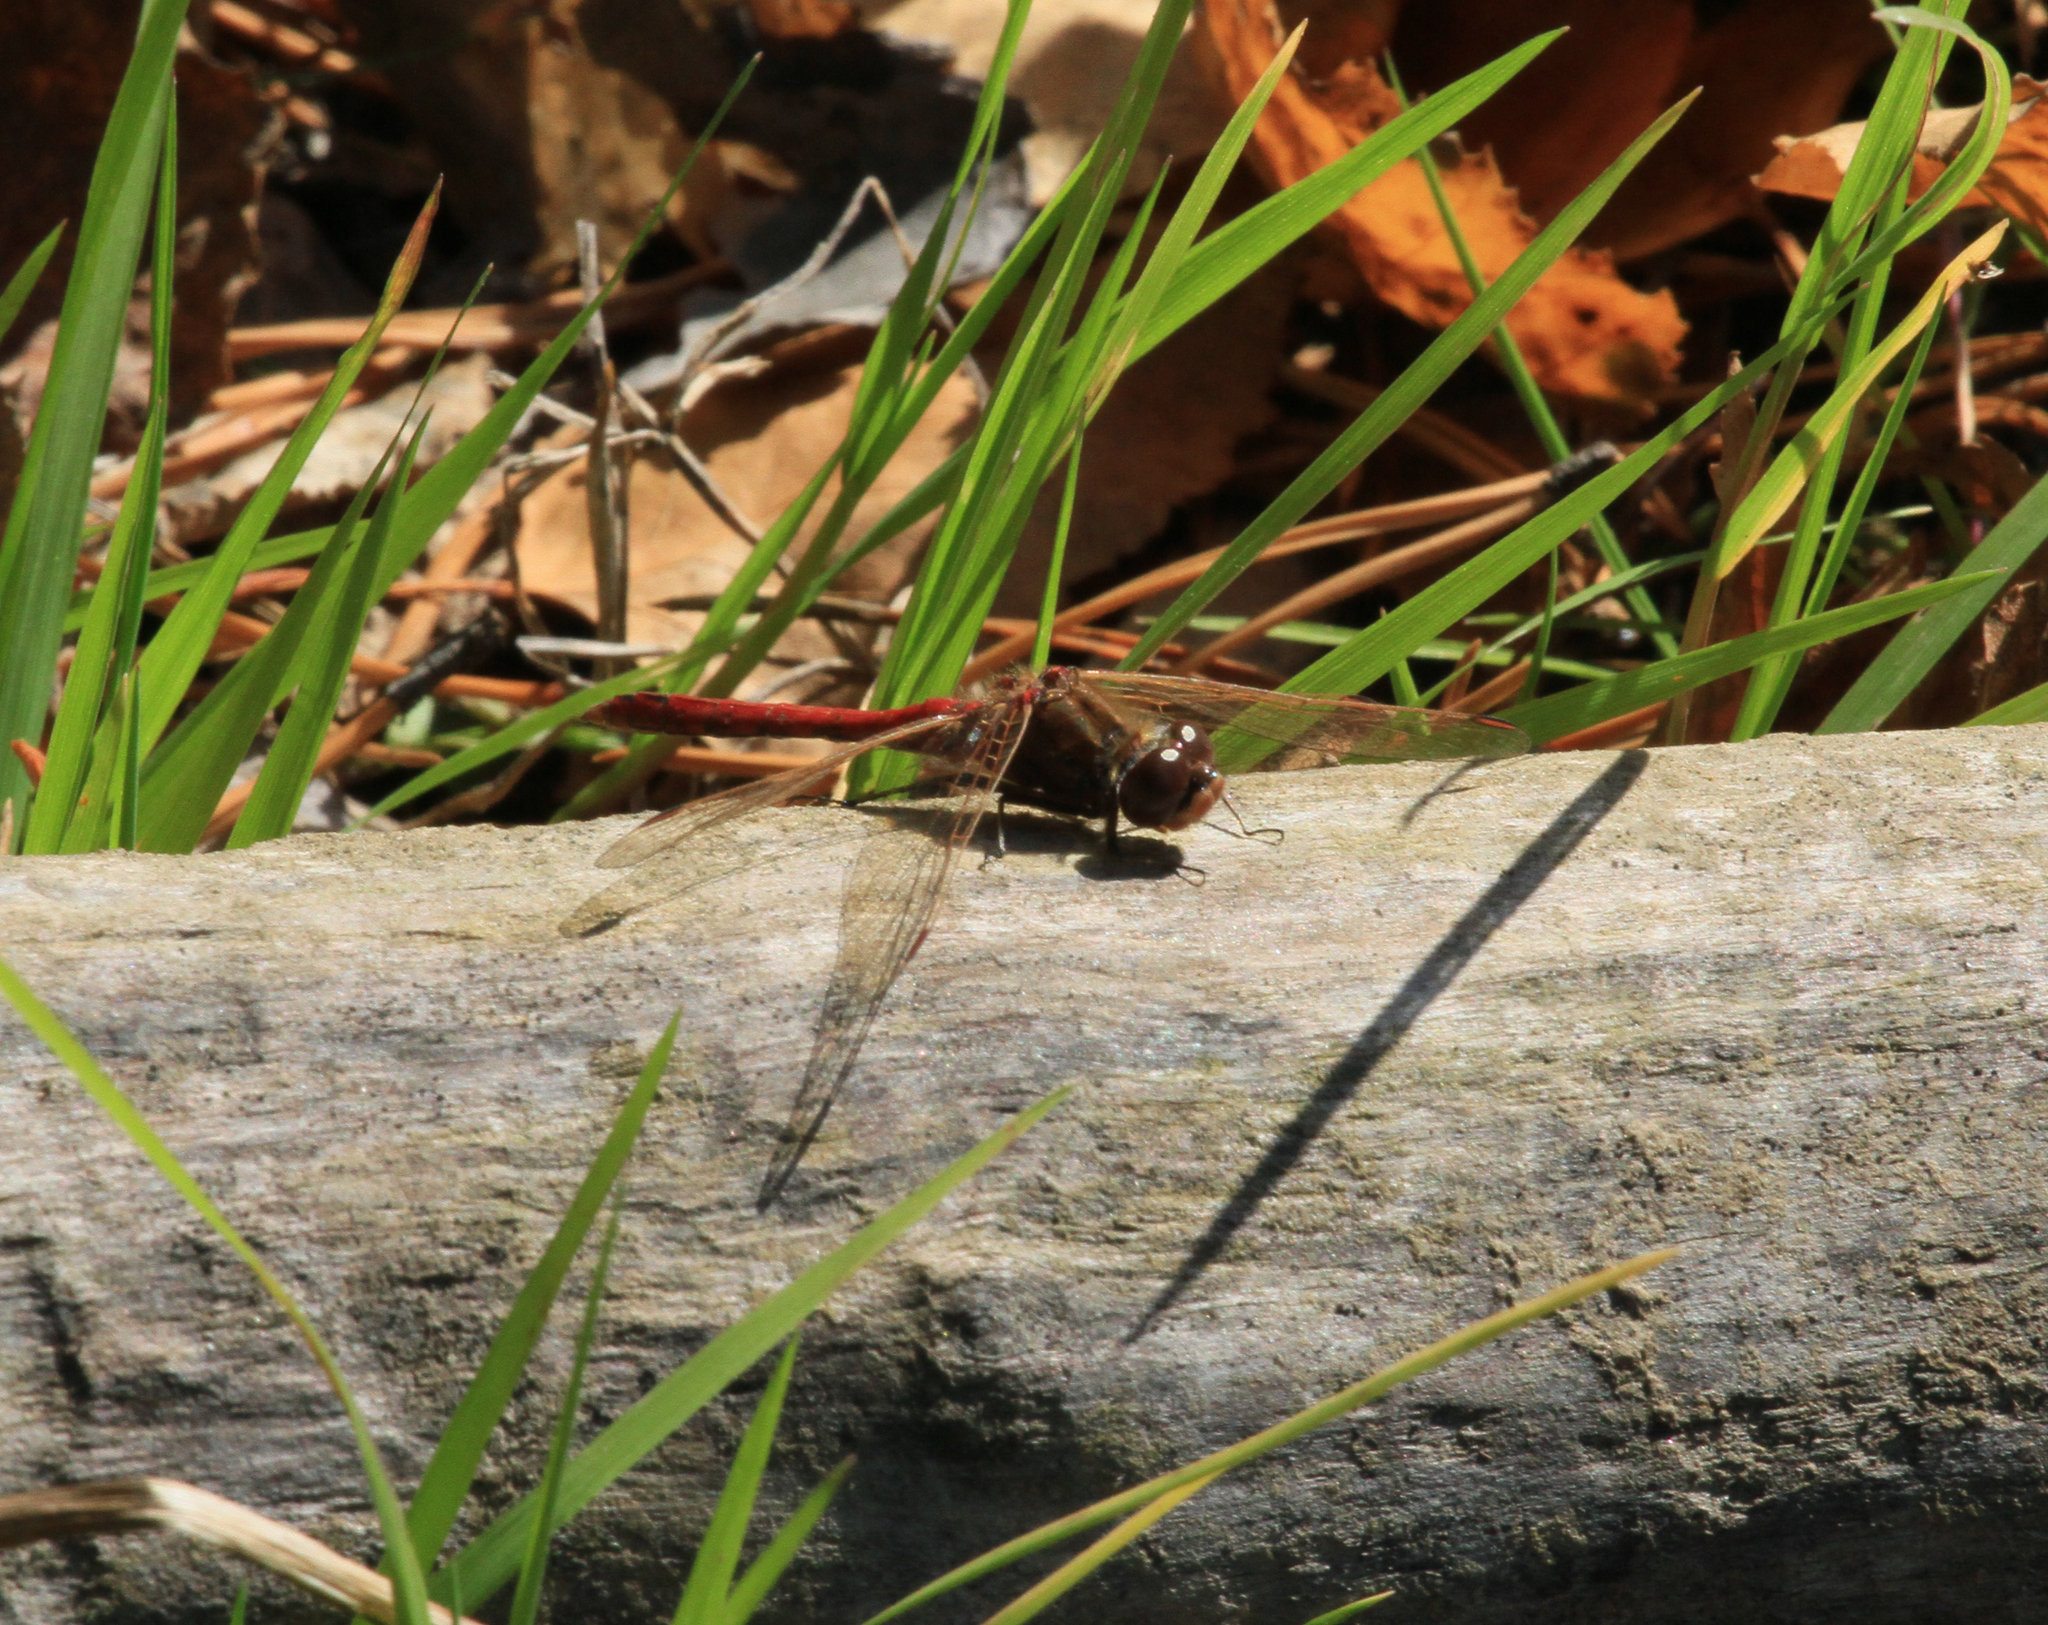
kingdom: Animalia
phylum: Arthropoda
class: Insecta
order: Odonata
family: Libellulidae
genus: Sympetrum
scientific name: Sympetrum vulgatum
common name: Vagrant darter
